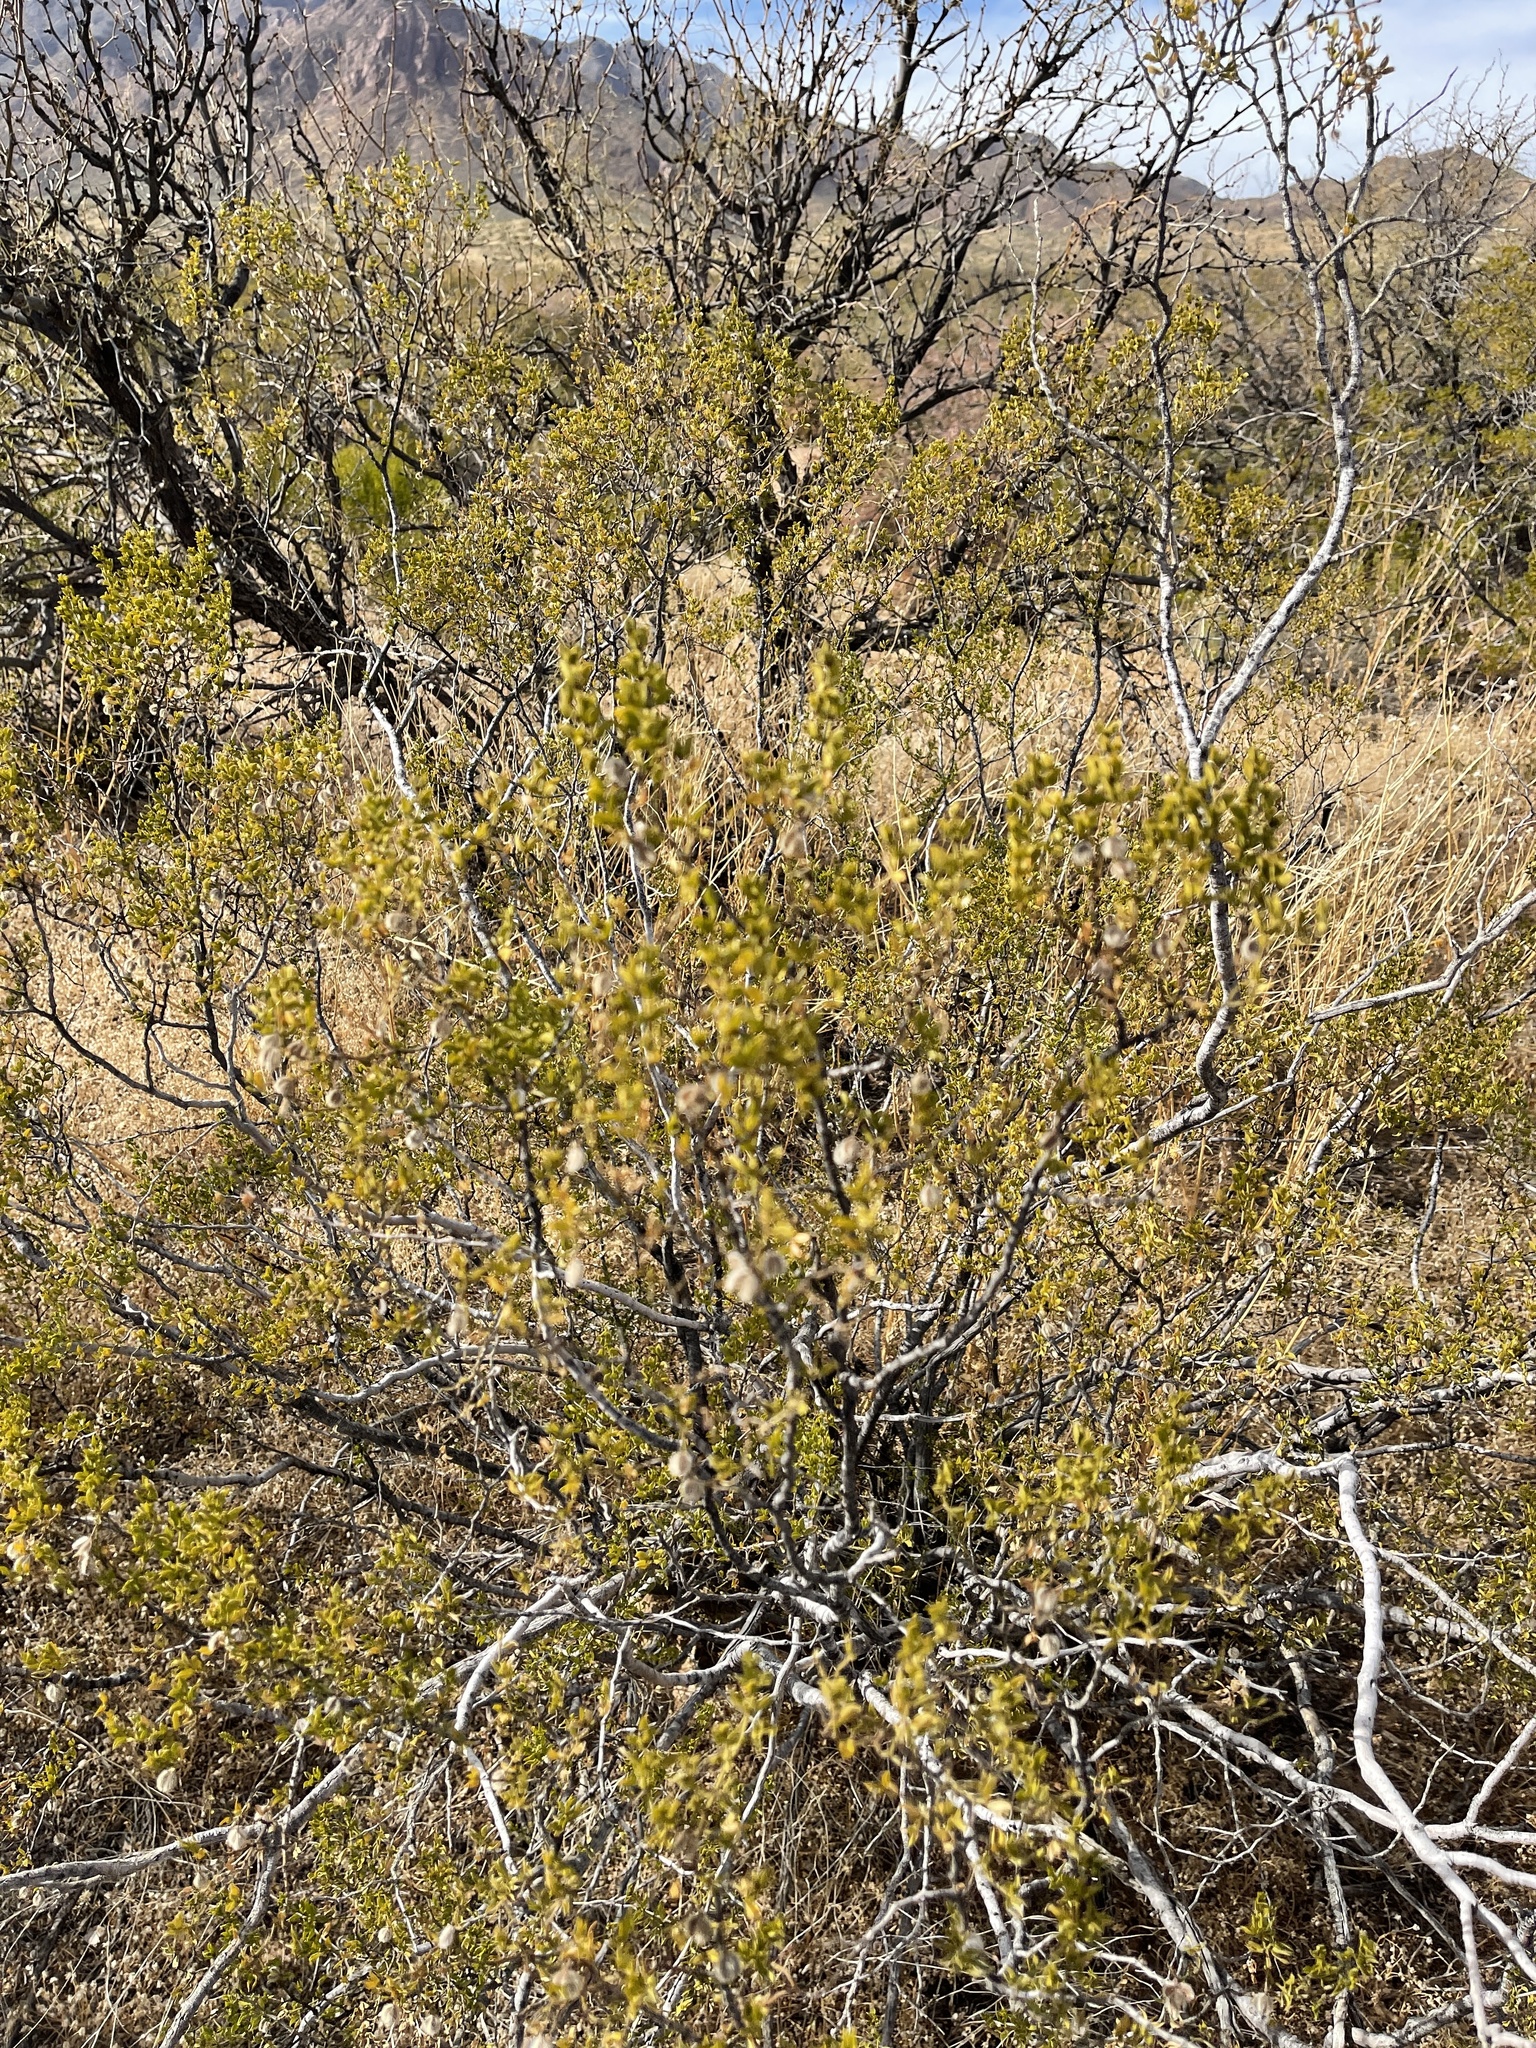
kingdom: Plantae
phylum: Tracheophyta
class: Magnoliopsida
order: Zygophyllales
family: Zygophyllaceae
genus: Larrea
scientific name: Larrea tridentata
